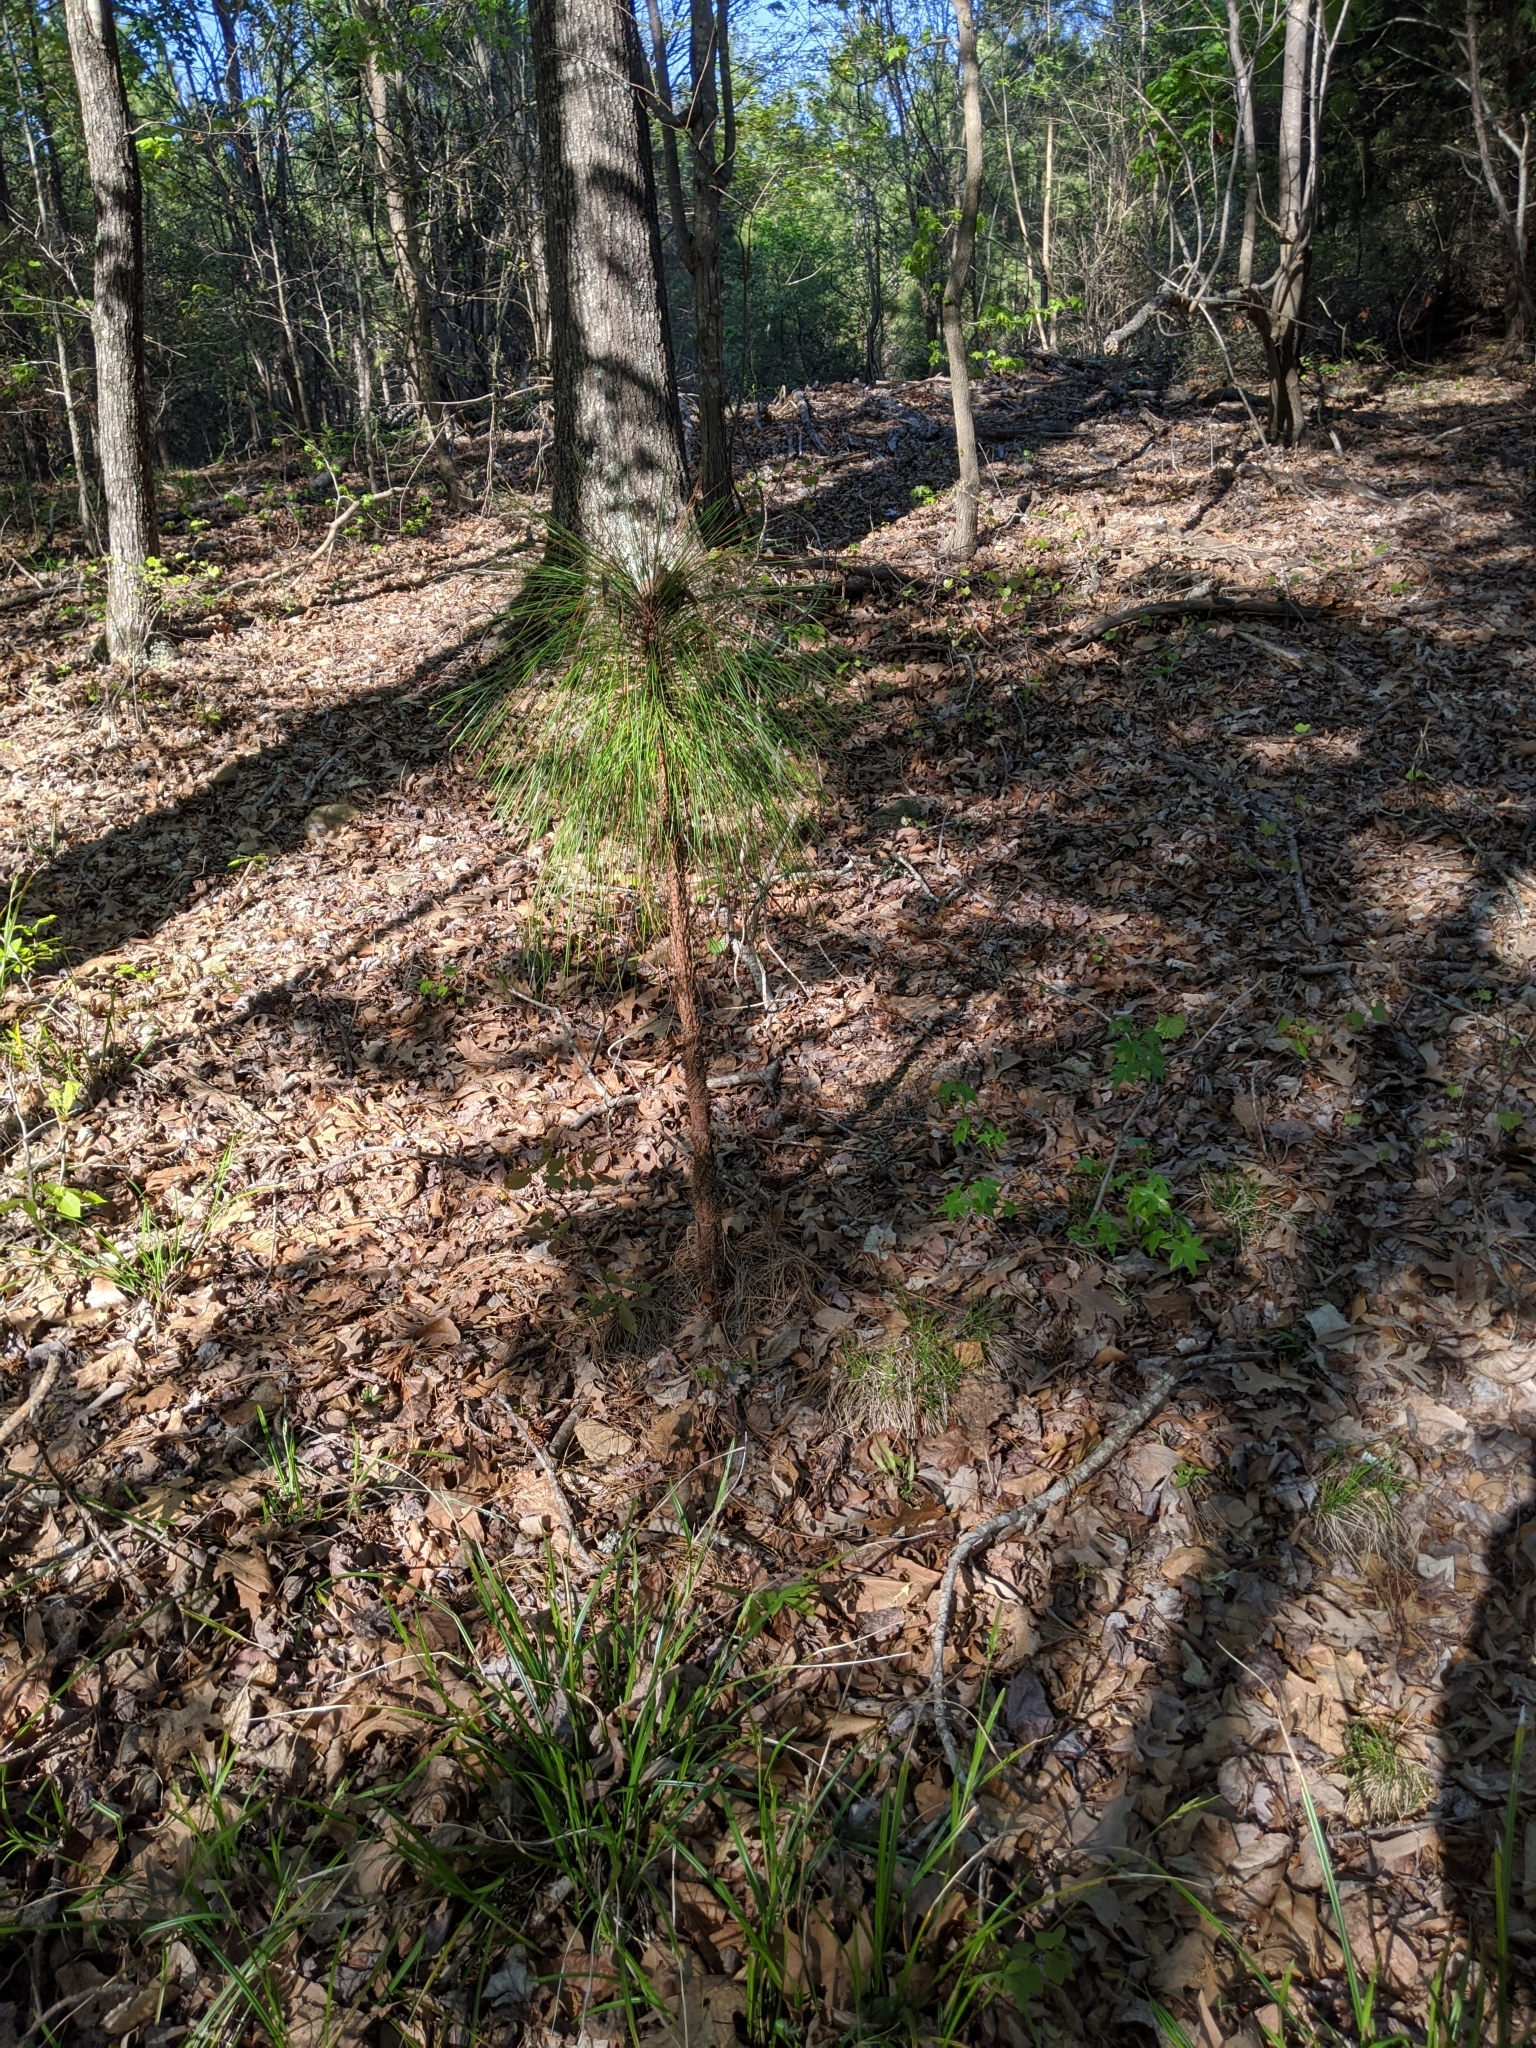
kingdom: Plantae
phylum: Tracheophyta
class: Pinopsida
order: Pinales
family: Pinaceae
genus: Pinus
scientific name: Pinus palustris
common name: Longleaf pine
